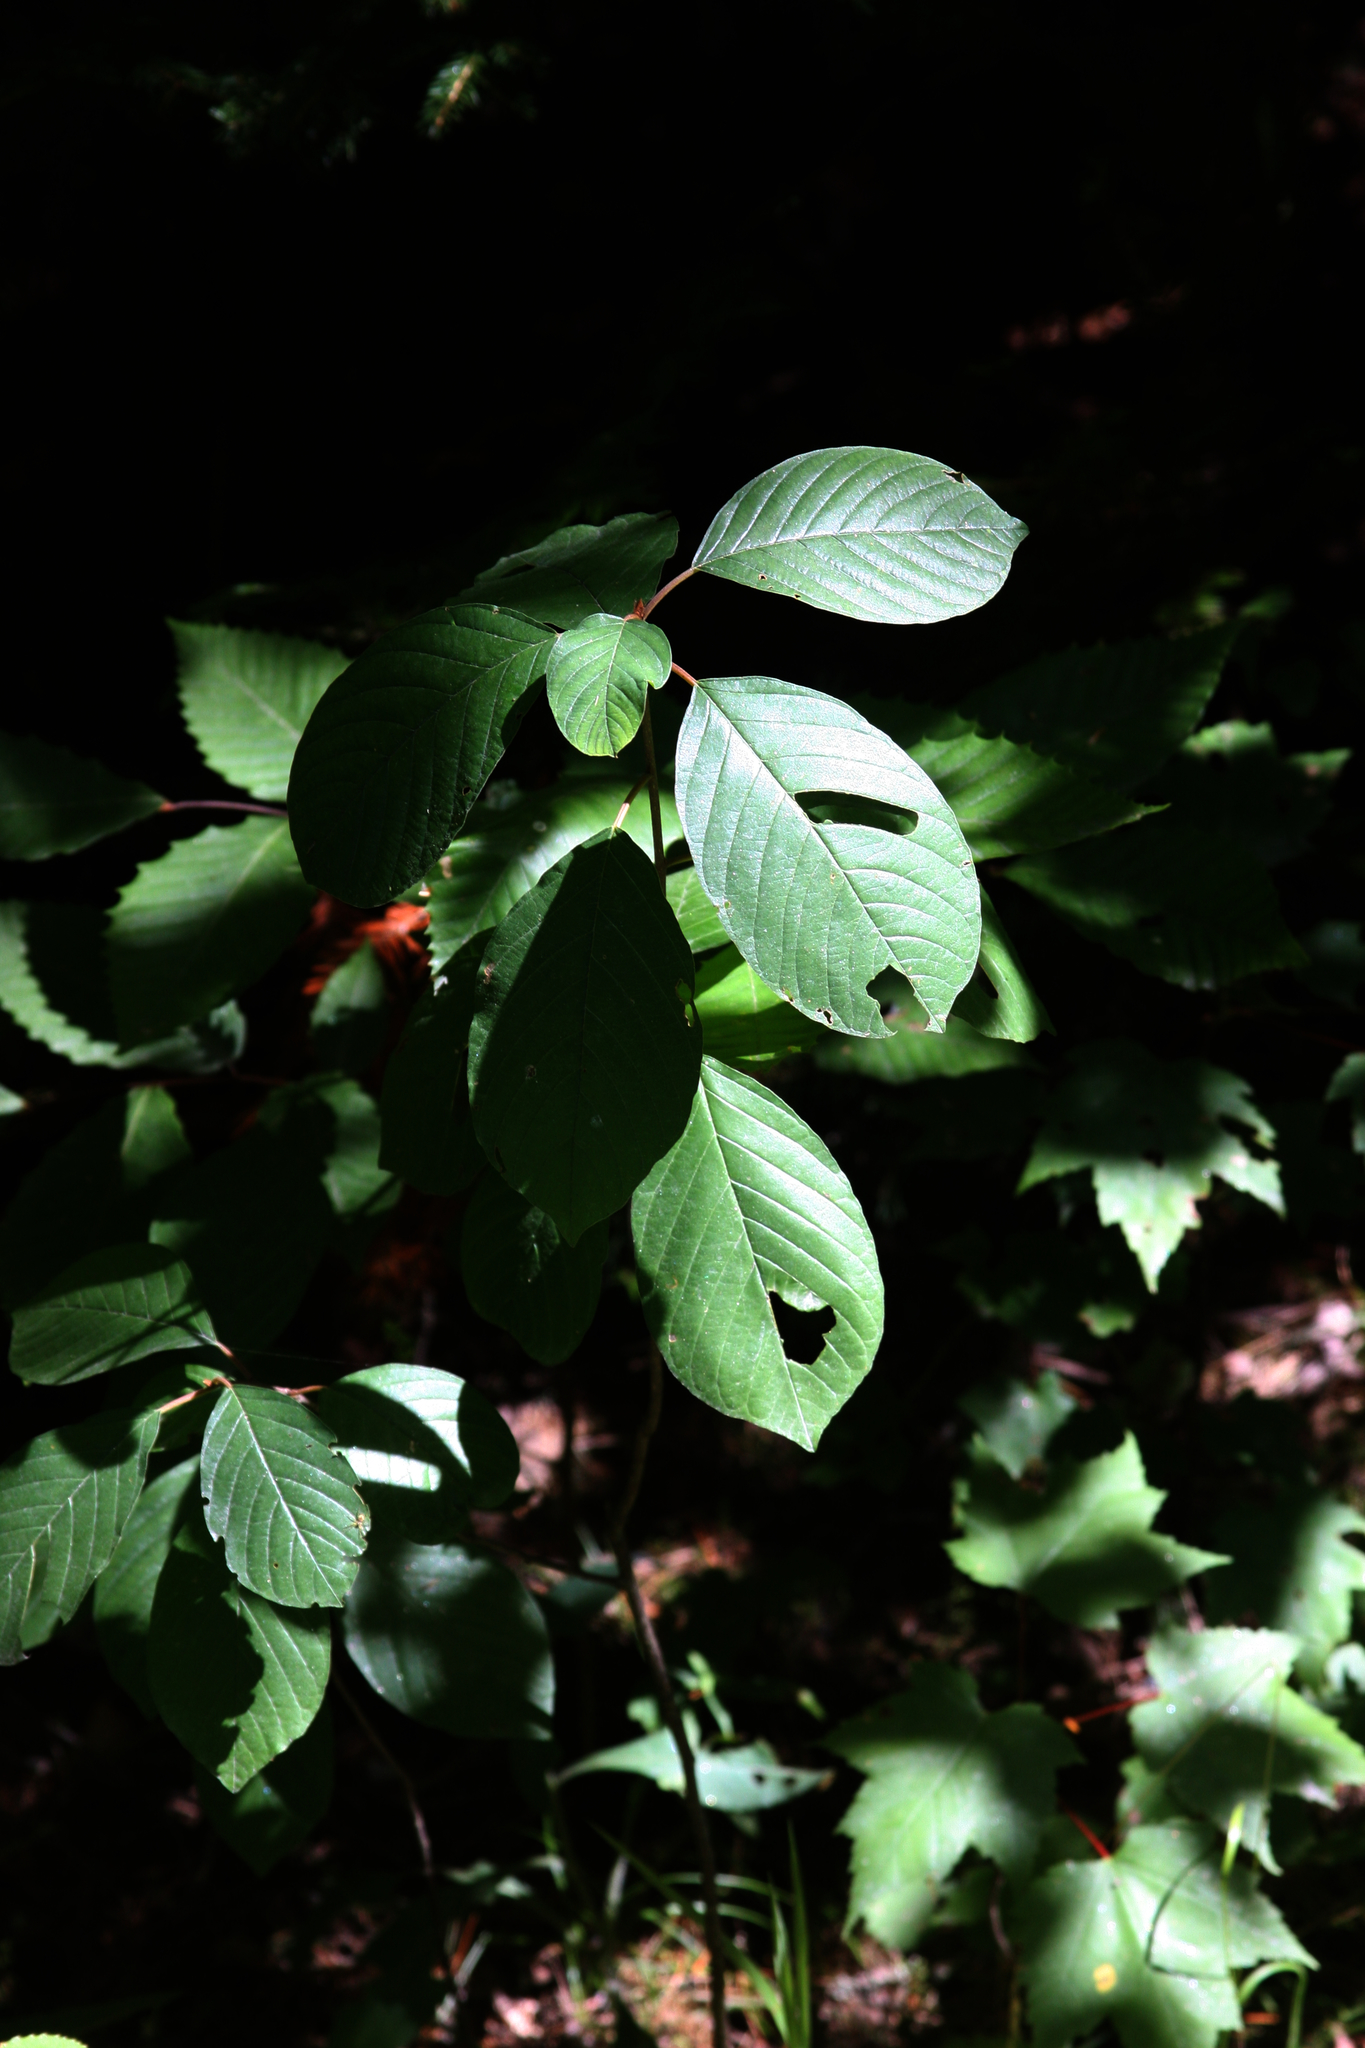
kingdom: Plantae
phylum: Tracheophyta
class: Magnoliopsida
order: Rosales
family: Rhamnaceae
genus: Frangula
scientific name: Frangula alnus
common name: Alder buckthorn
